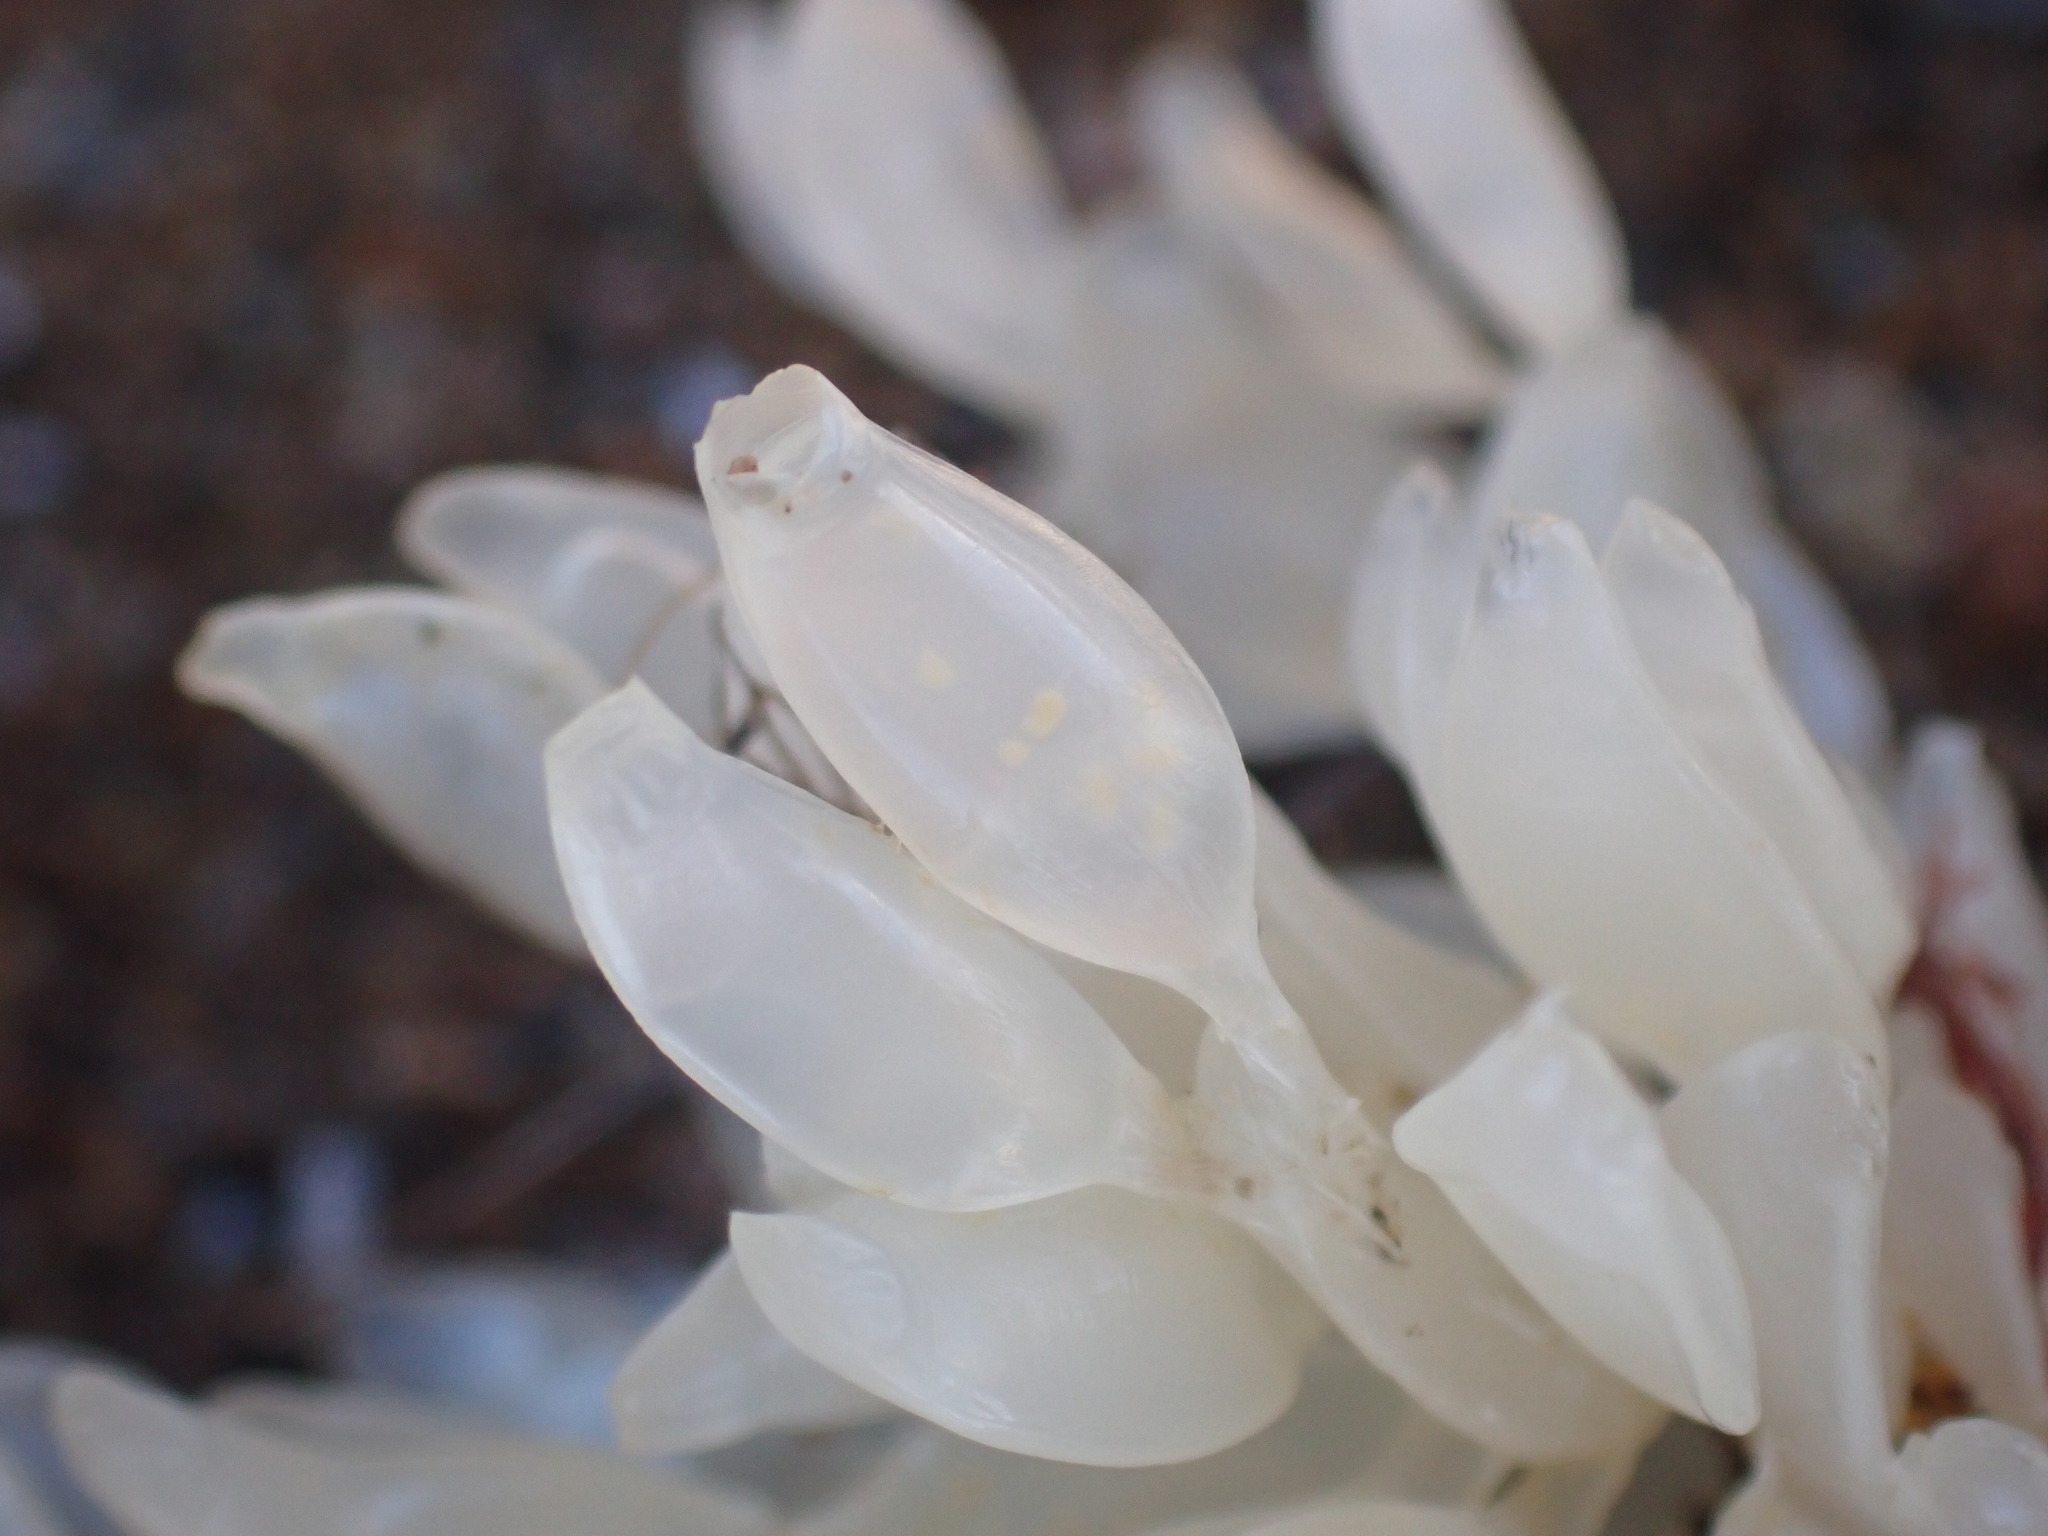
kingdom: Animalia
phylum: Mollusca
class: Gastropoda
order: Neogastropoda
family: Cominellidae
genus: Cominella
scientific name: Cominella adspersa
